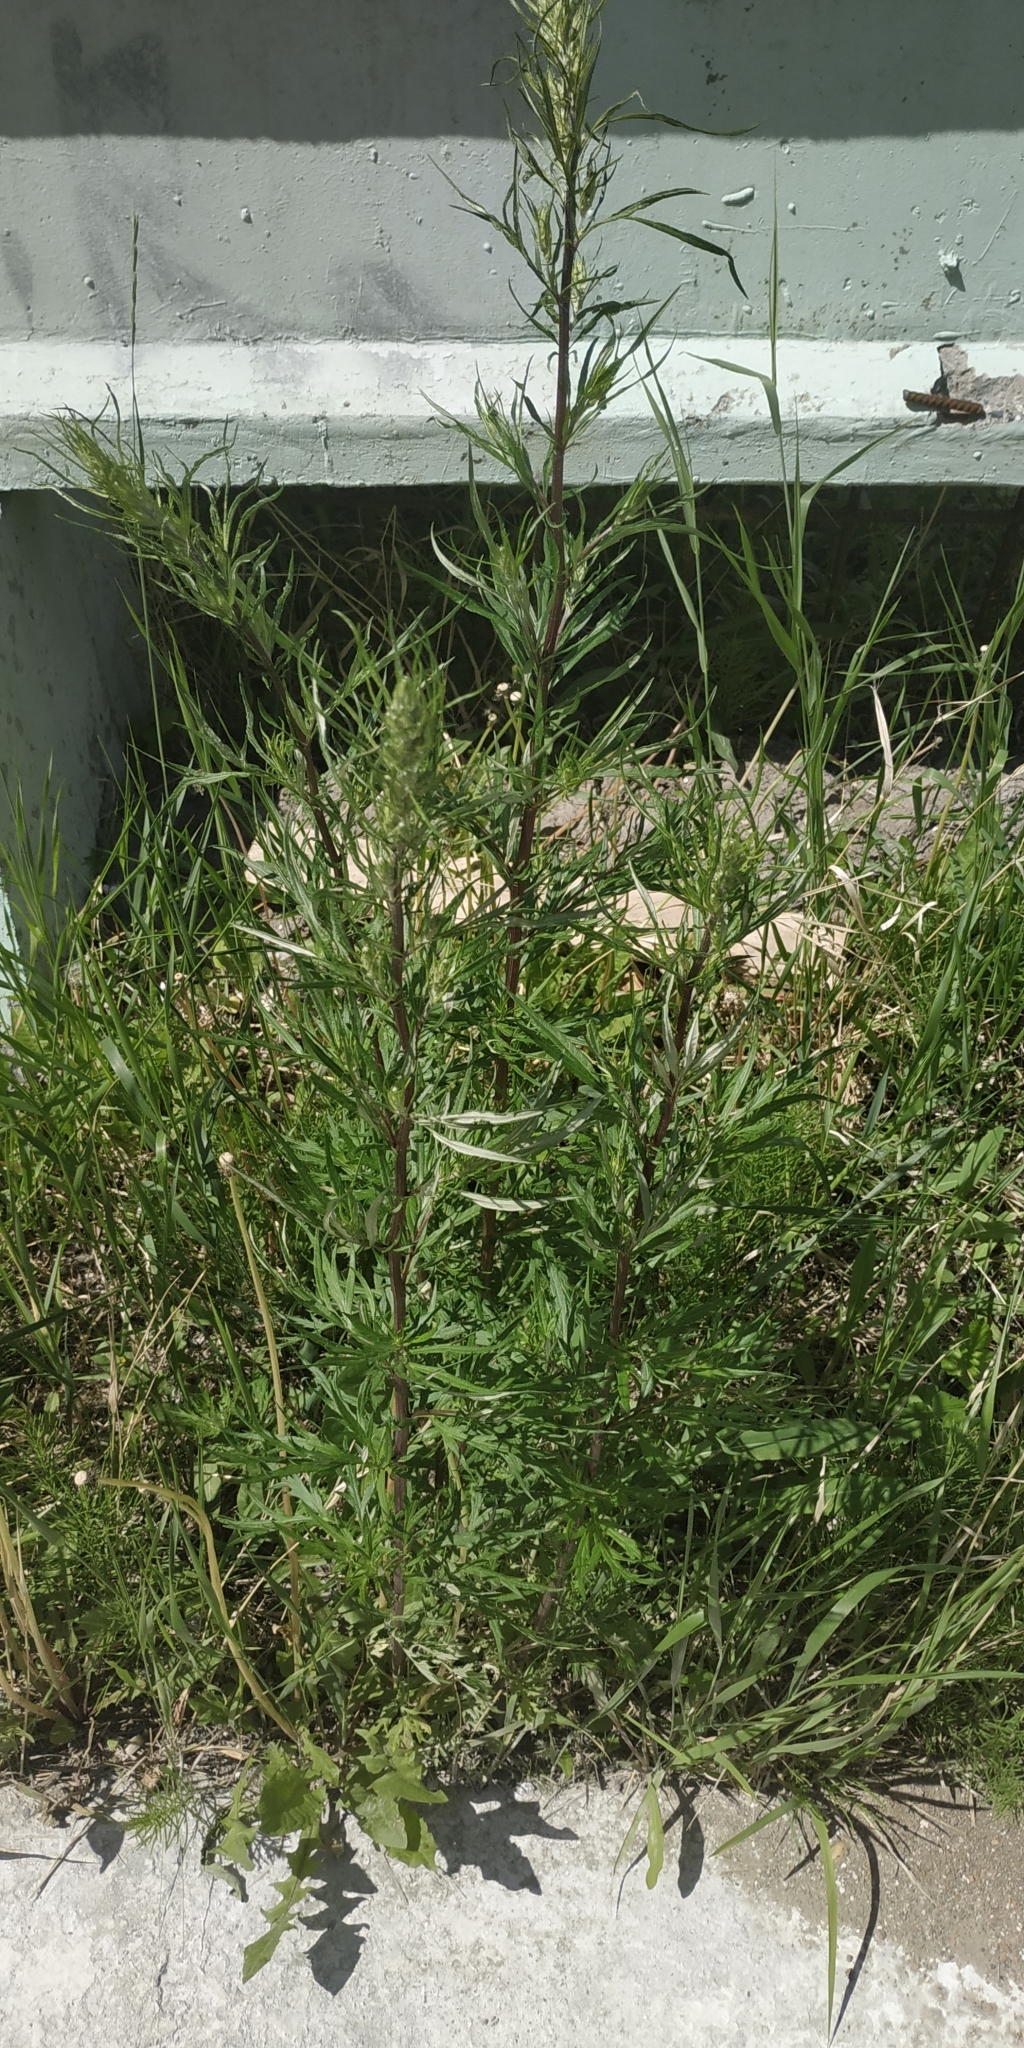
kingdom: Plantae
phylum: Tracheophyta
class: Magnoliopsida
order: Asterales
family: Asteraceae
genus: Artemisia
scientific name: Artemisia vulgaris
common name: Mugwort
